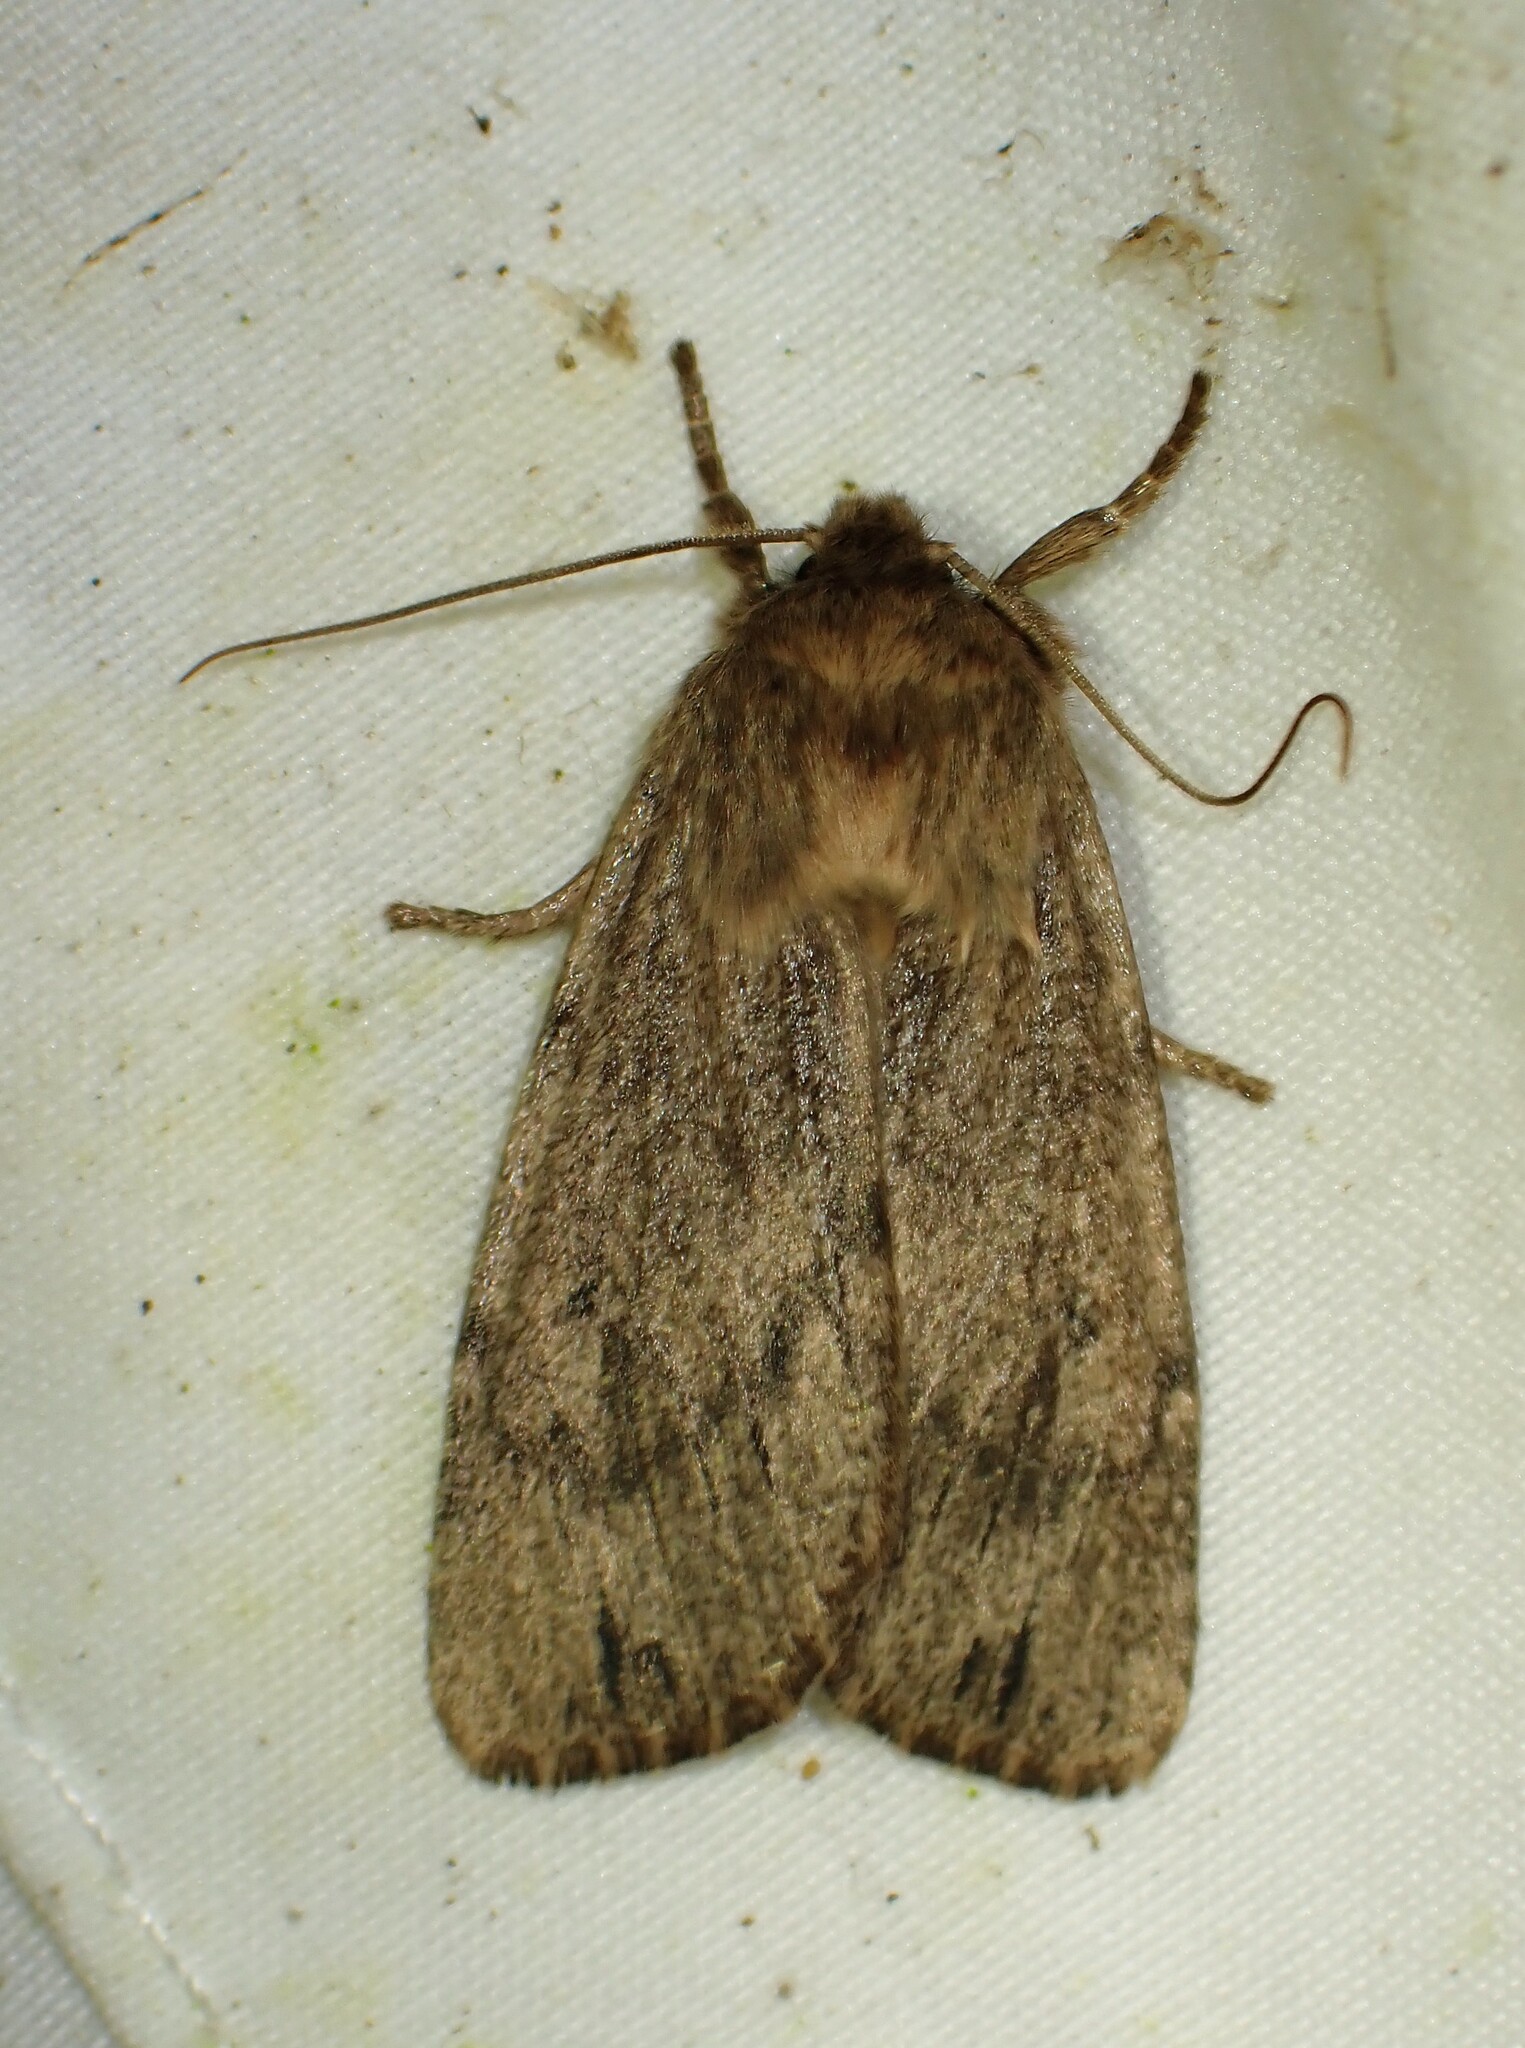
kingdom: Animalia
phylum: Arthropoda
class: Insecta
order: Lepidoptera
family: Noctuidae
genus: Ufeus
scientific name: Ufeus satyricus
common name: Brown satyr moth
